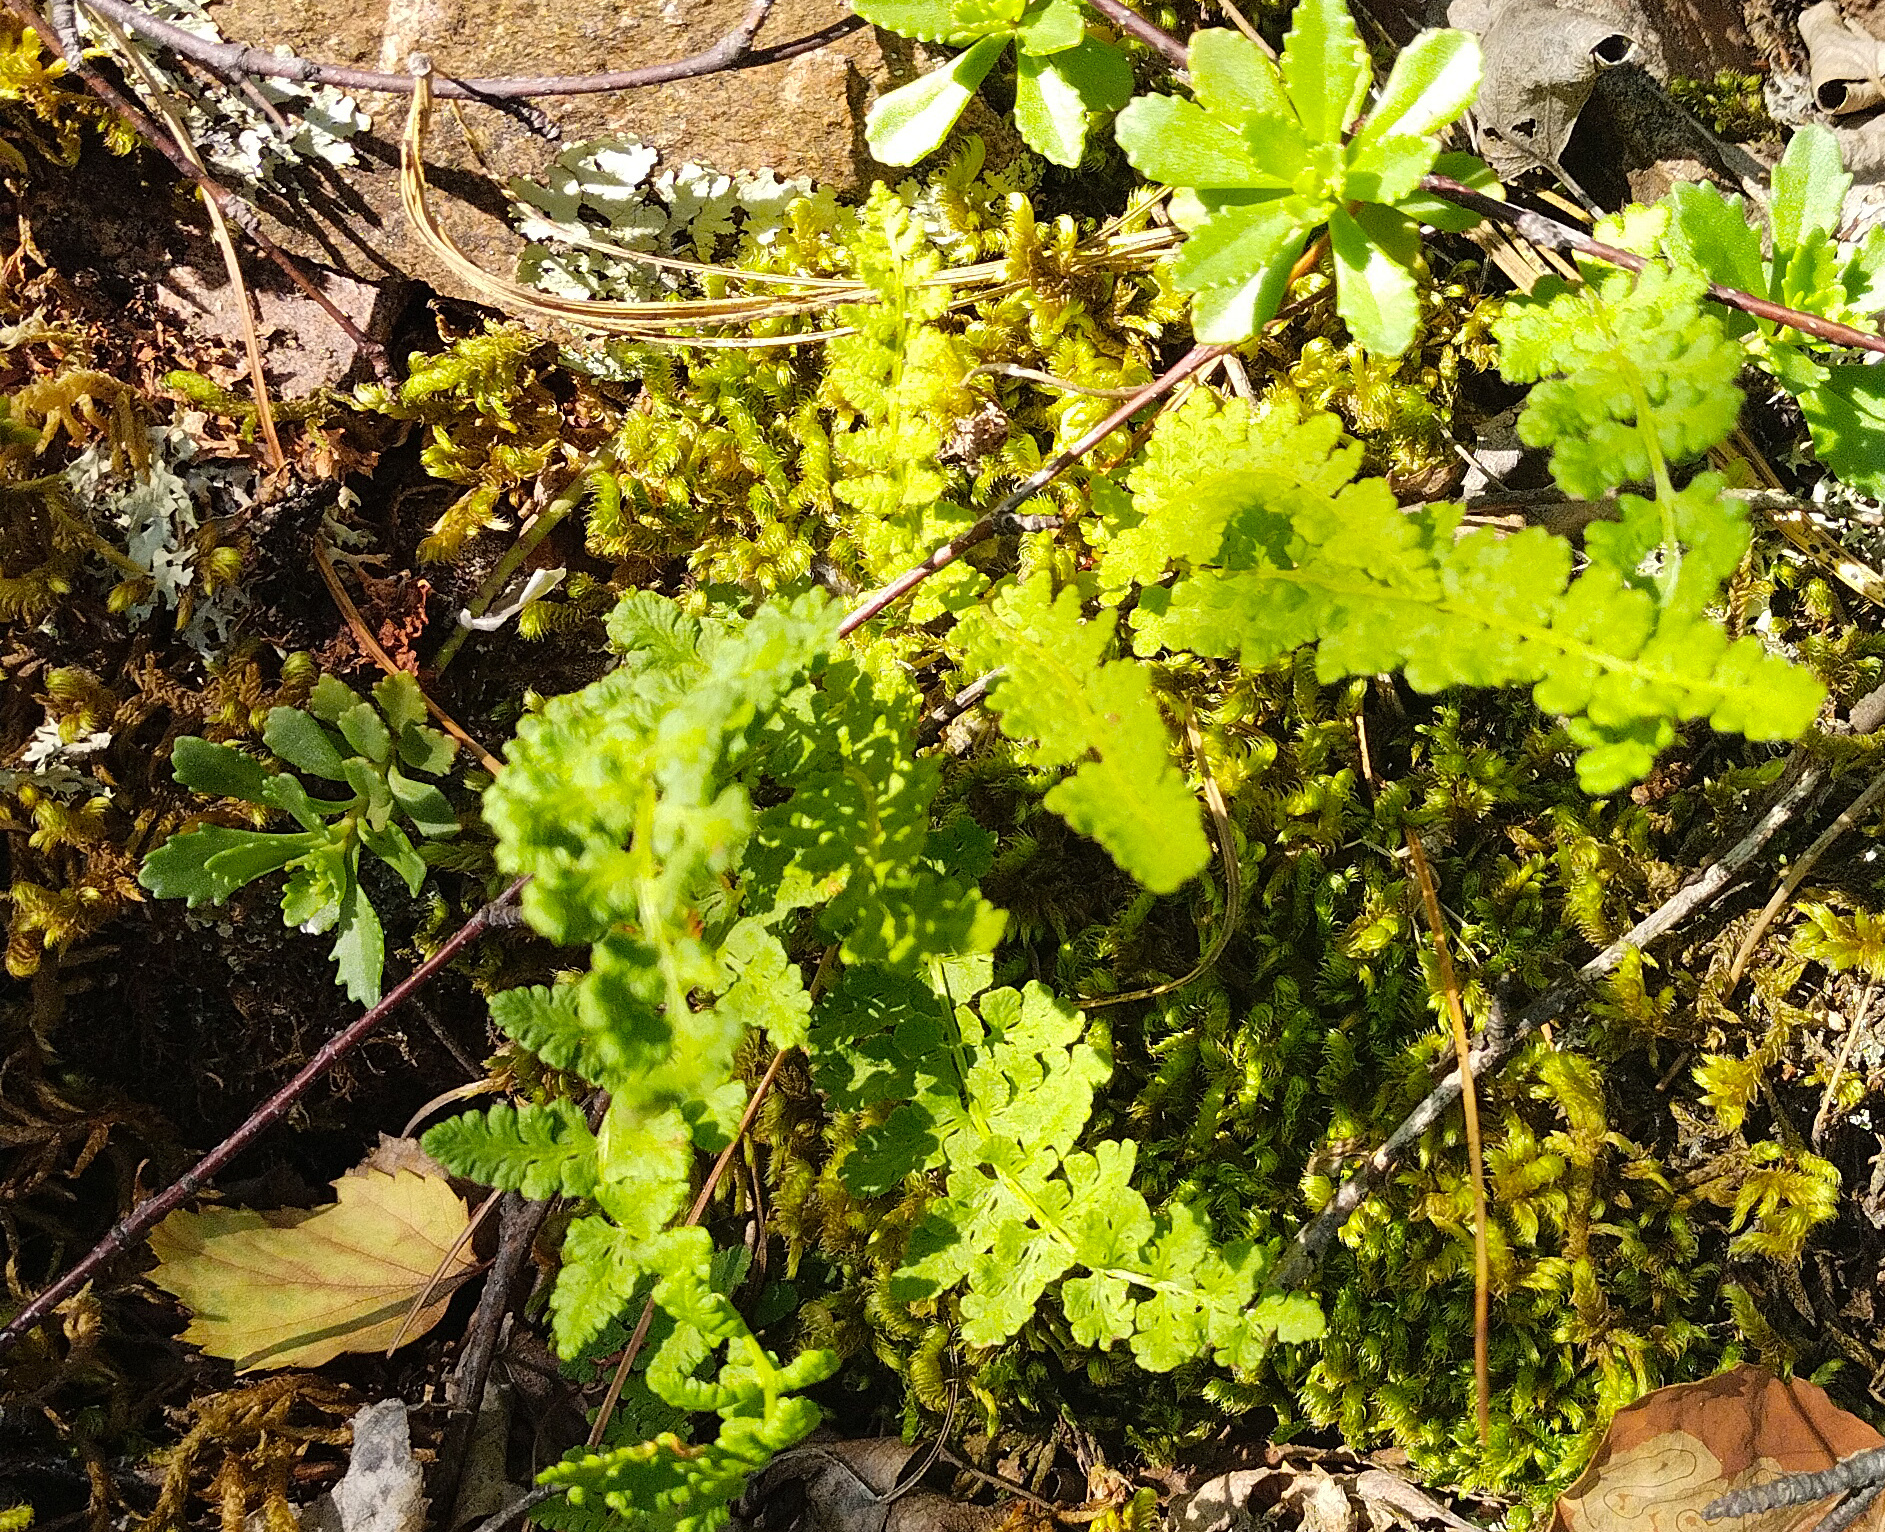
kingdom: Plantae
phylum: Tracheophyta
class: Polypodiopsida
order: Polypodiales
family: Woodsiaceae
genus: Woodsia
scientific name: Woodsia ilvensis
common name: Fragrant woodsia
